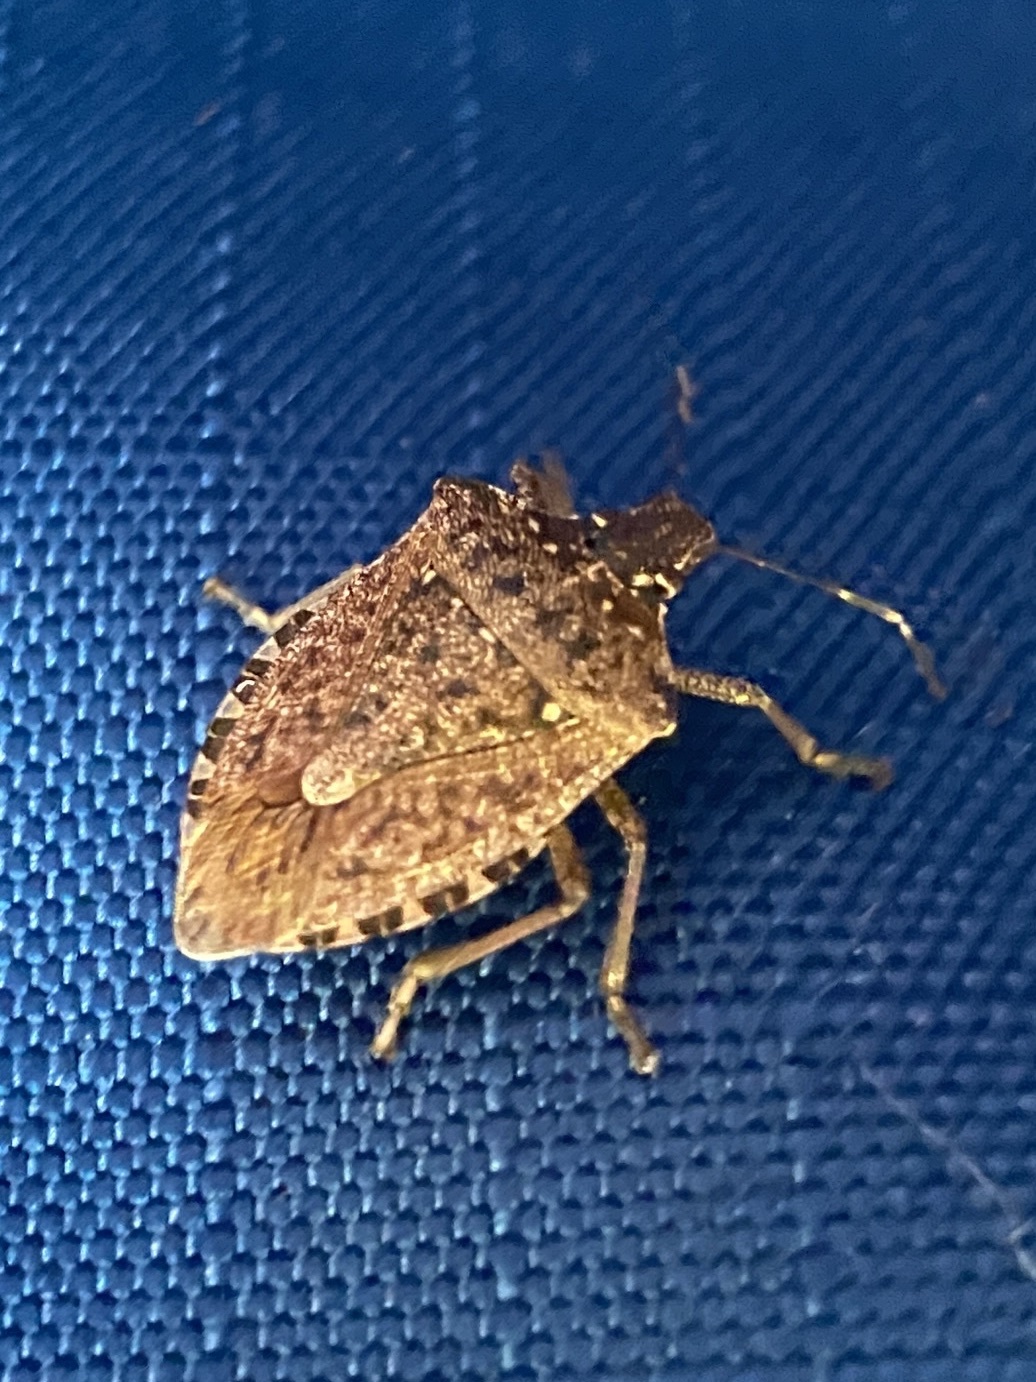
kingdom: Animalia
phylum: Arthropoda
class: Insecta
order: Hemiptera
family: Pentatomidae
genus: Halyomorpha
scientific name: Halyomorpha halys
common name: Brown marmorated stink bug
